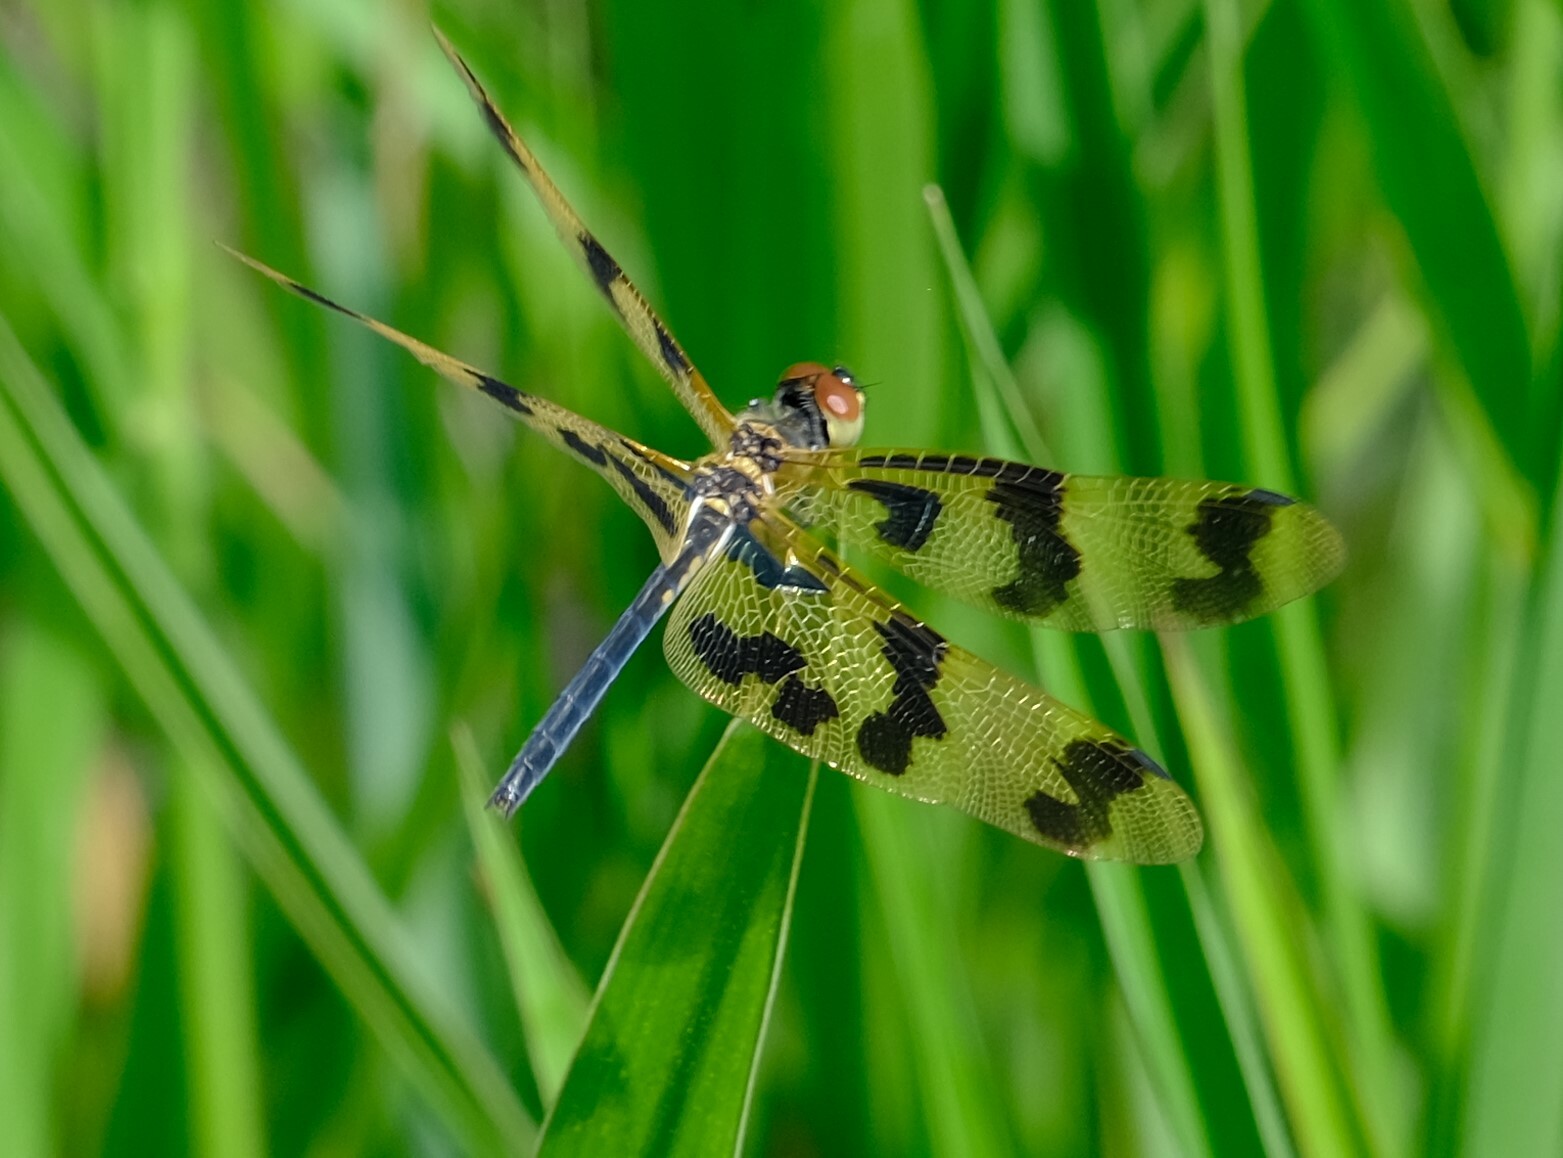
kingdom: Animalia
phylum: Arthropoda
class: Insecta
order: Odonata
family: Libellulidae
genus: Rhyothemis
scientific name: Rhyothemis graphiptera
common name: Graphic flutterer
